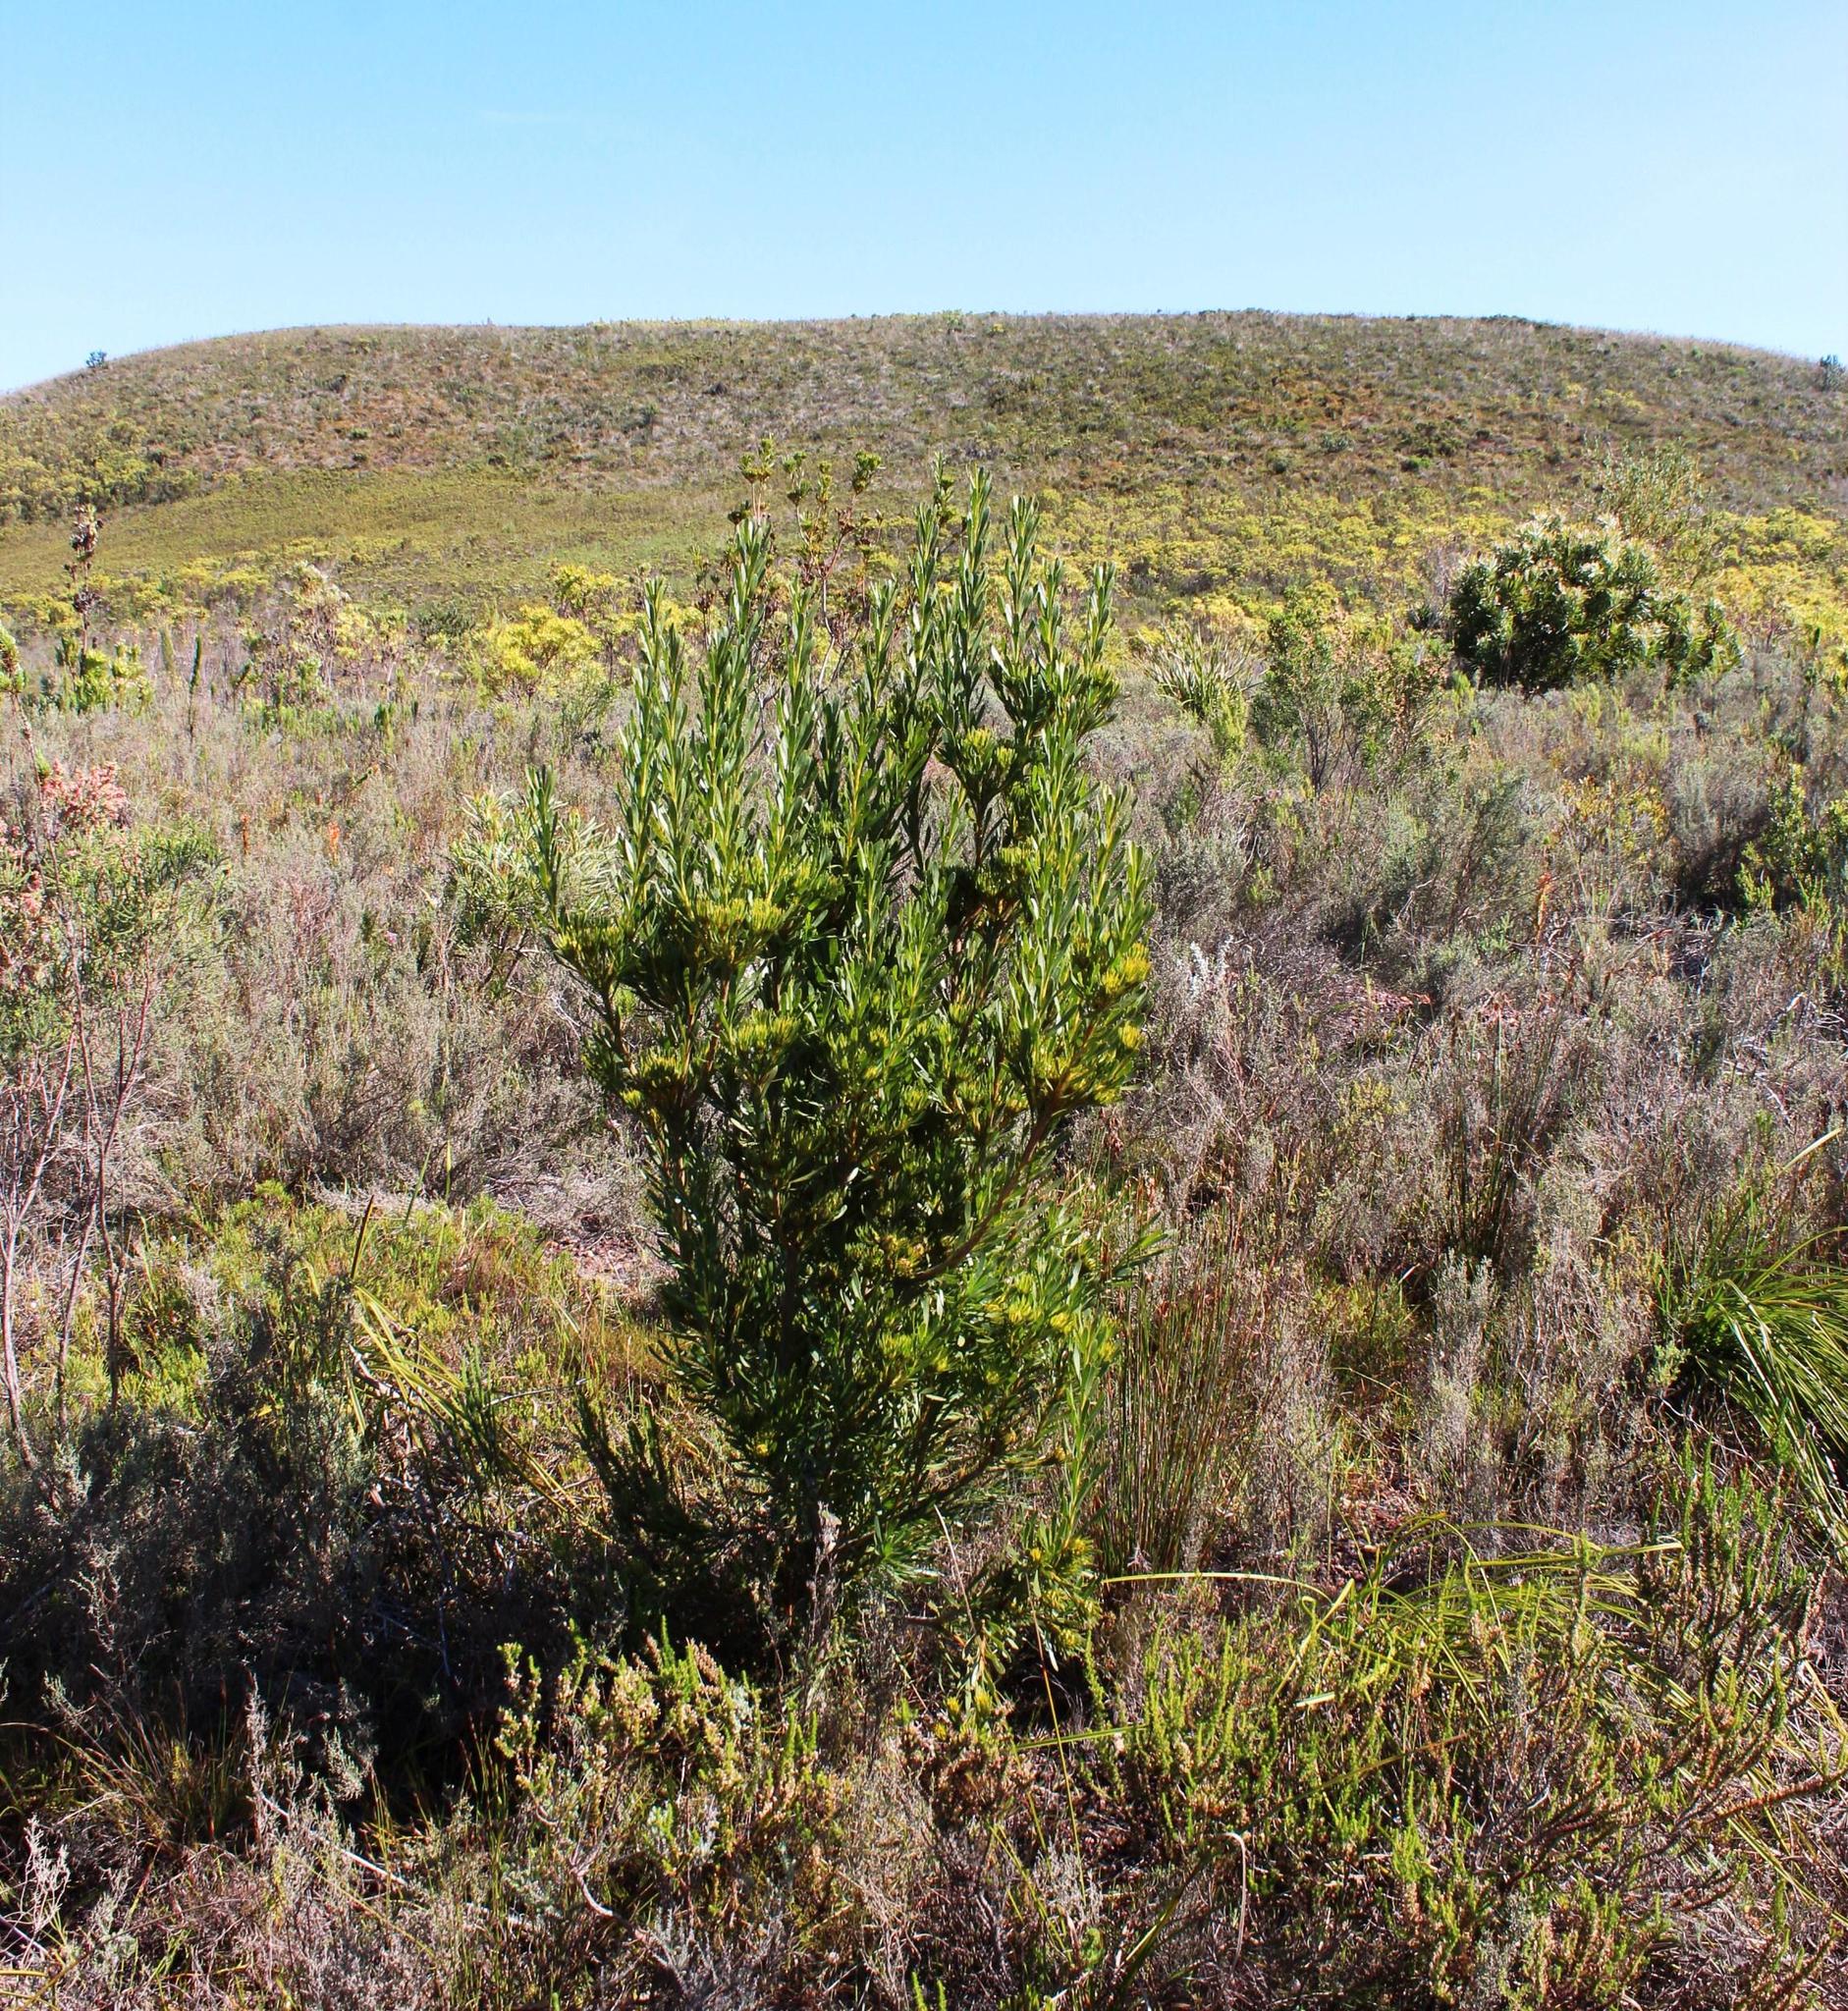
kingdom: Plantae
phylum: Tracheophyta
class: Magnoliopsida
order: Proteales
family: Proteaceae
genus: Aulax
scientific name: Aulax umbellata
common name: Broad-leaf featherbush
